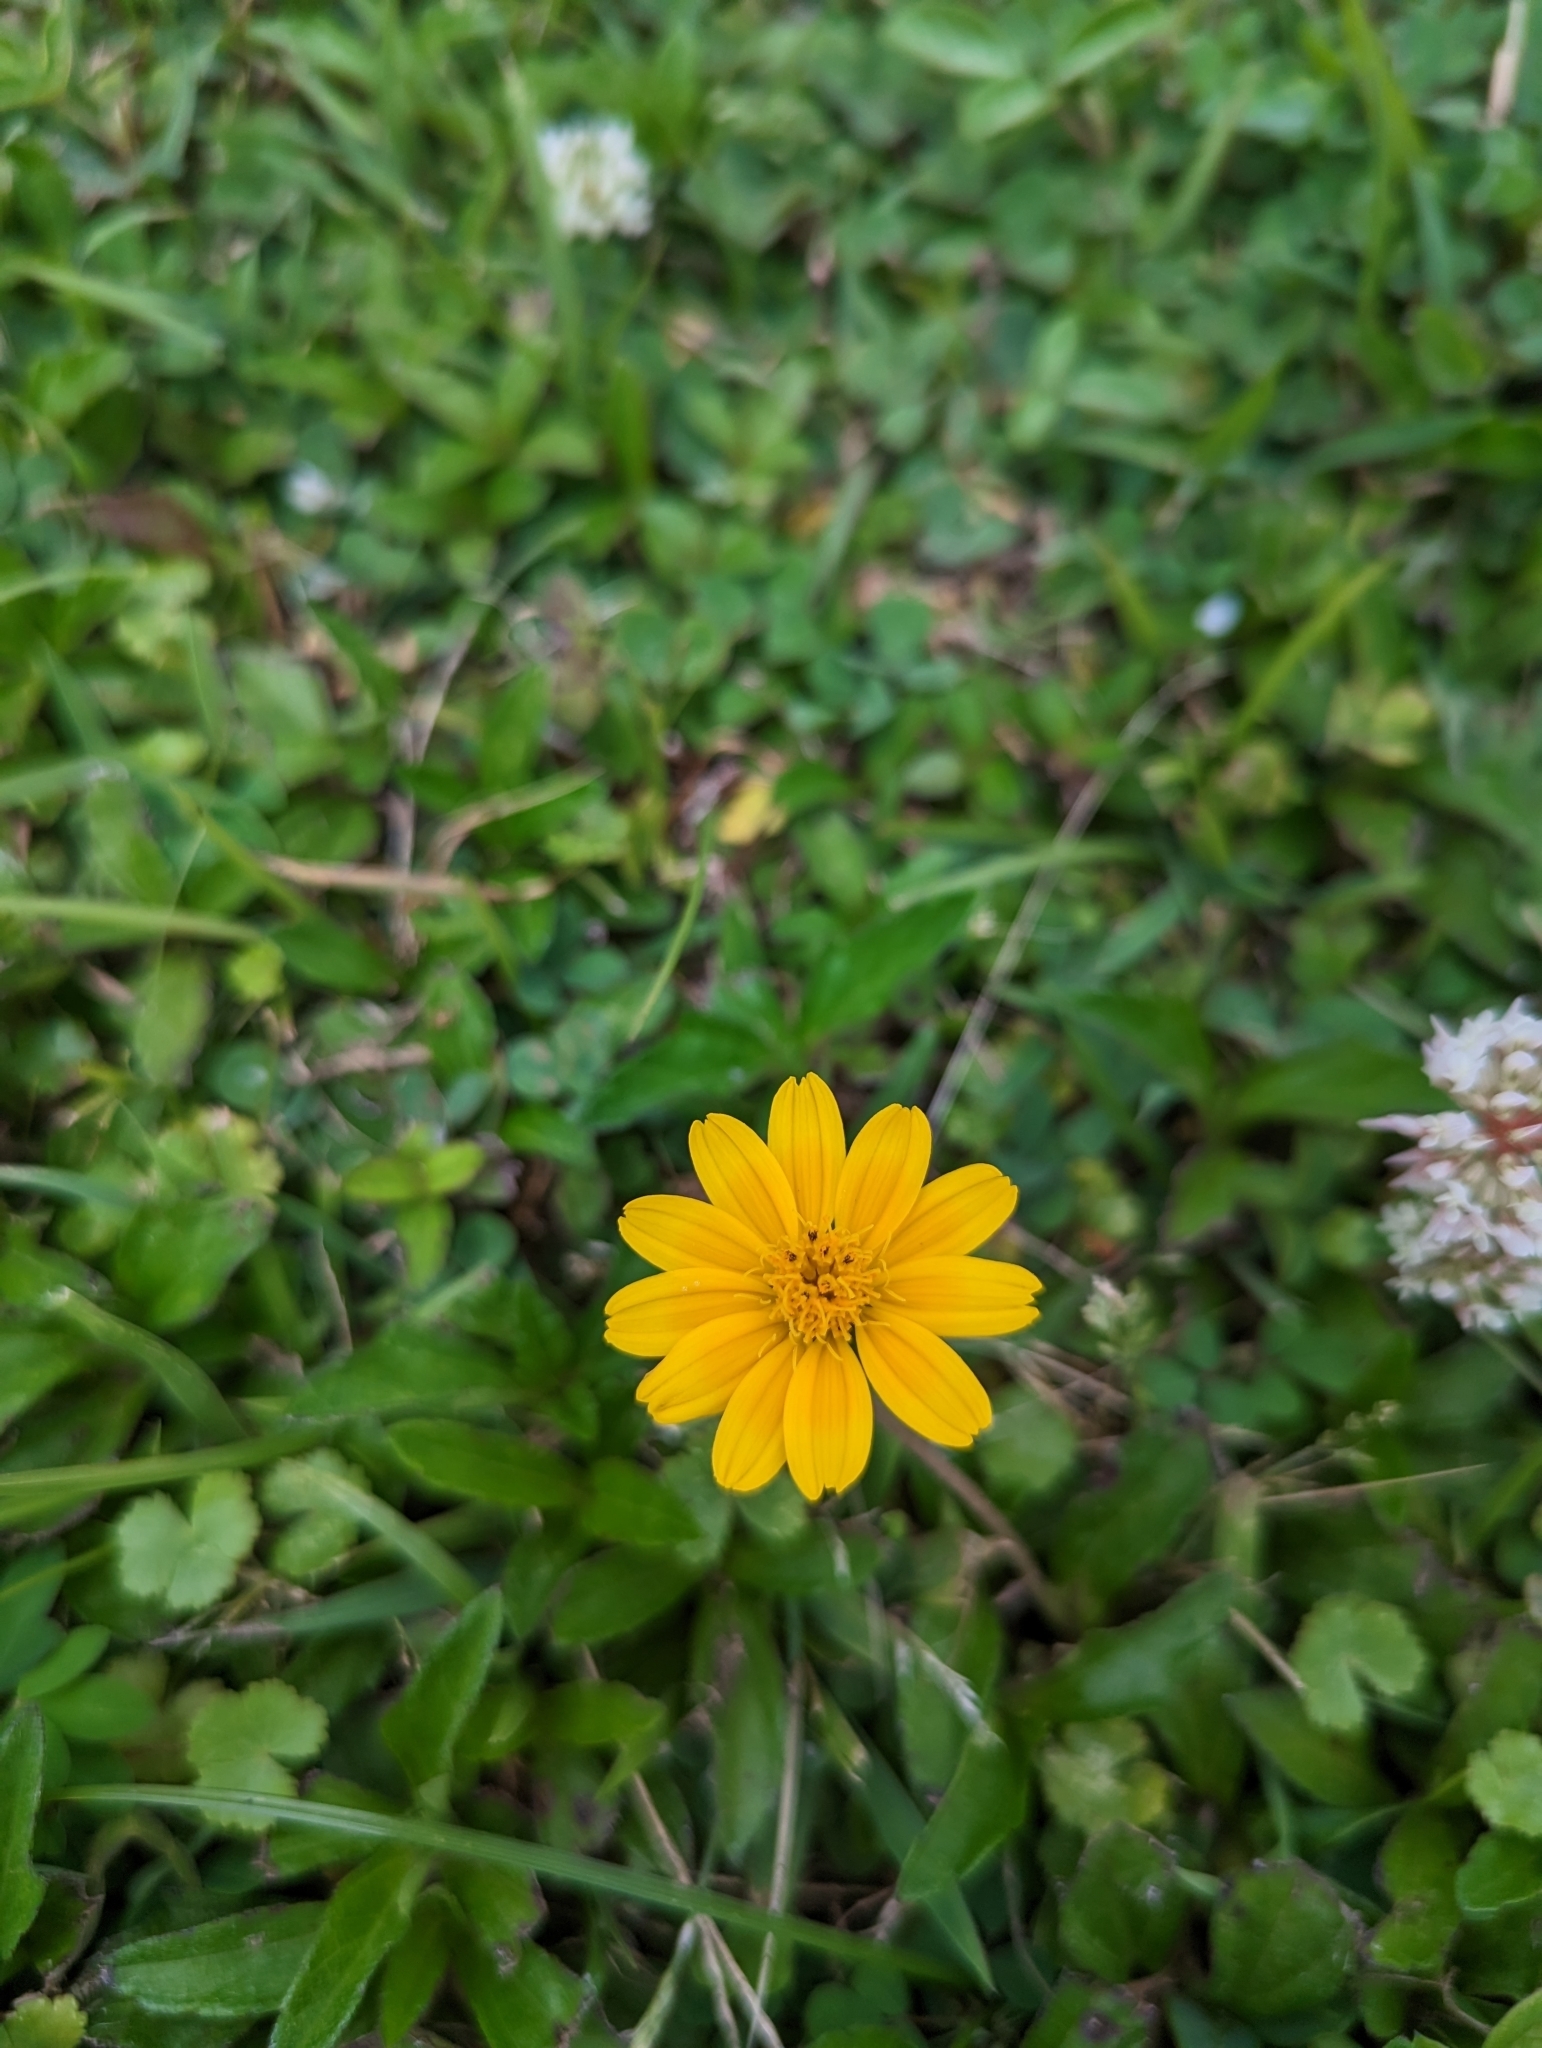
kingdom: Plantae
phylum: Tracheophyta
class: Magnoliopsida
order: Asterales
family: Asteraceae
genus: Sphagneticola
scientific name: Sphagneticola trilobata
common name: Bay biscayne creeping-oxeye
